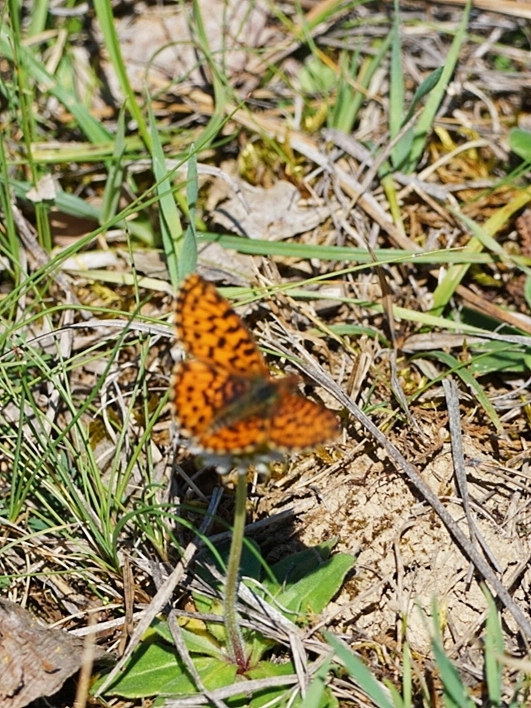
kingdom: Animalia
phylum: Arthropoda
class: Insecta
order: Lepidoptera
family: Nymphalidae
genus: Boloria
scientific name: Boloria dia
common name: Weaver's fritillary
